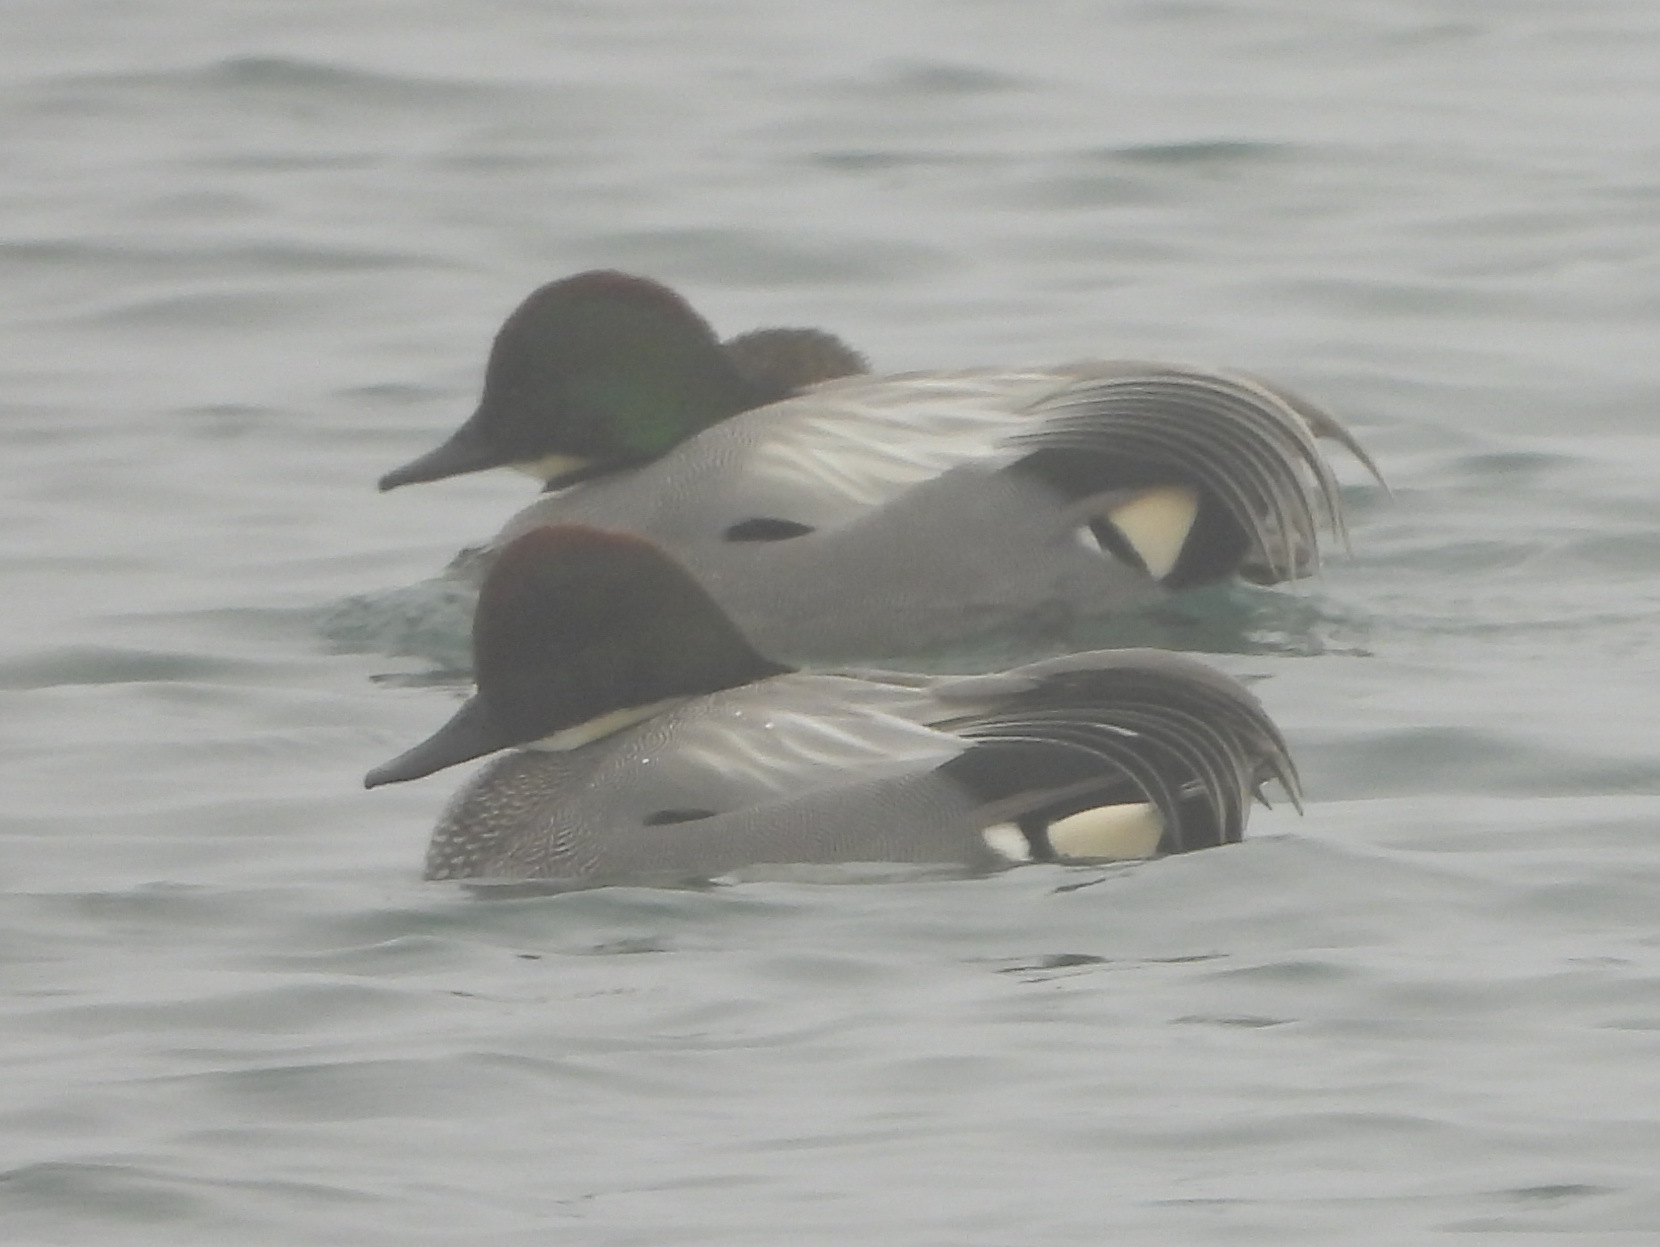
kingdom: Animalia
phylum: Chordata
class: Aves
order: Anseriformes
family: Anatidae
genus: Mareca
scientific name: Mareca falcata
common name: Falcated duck
